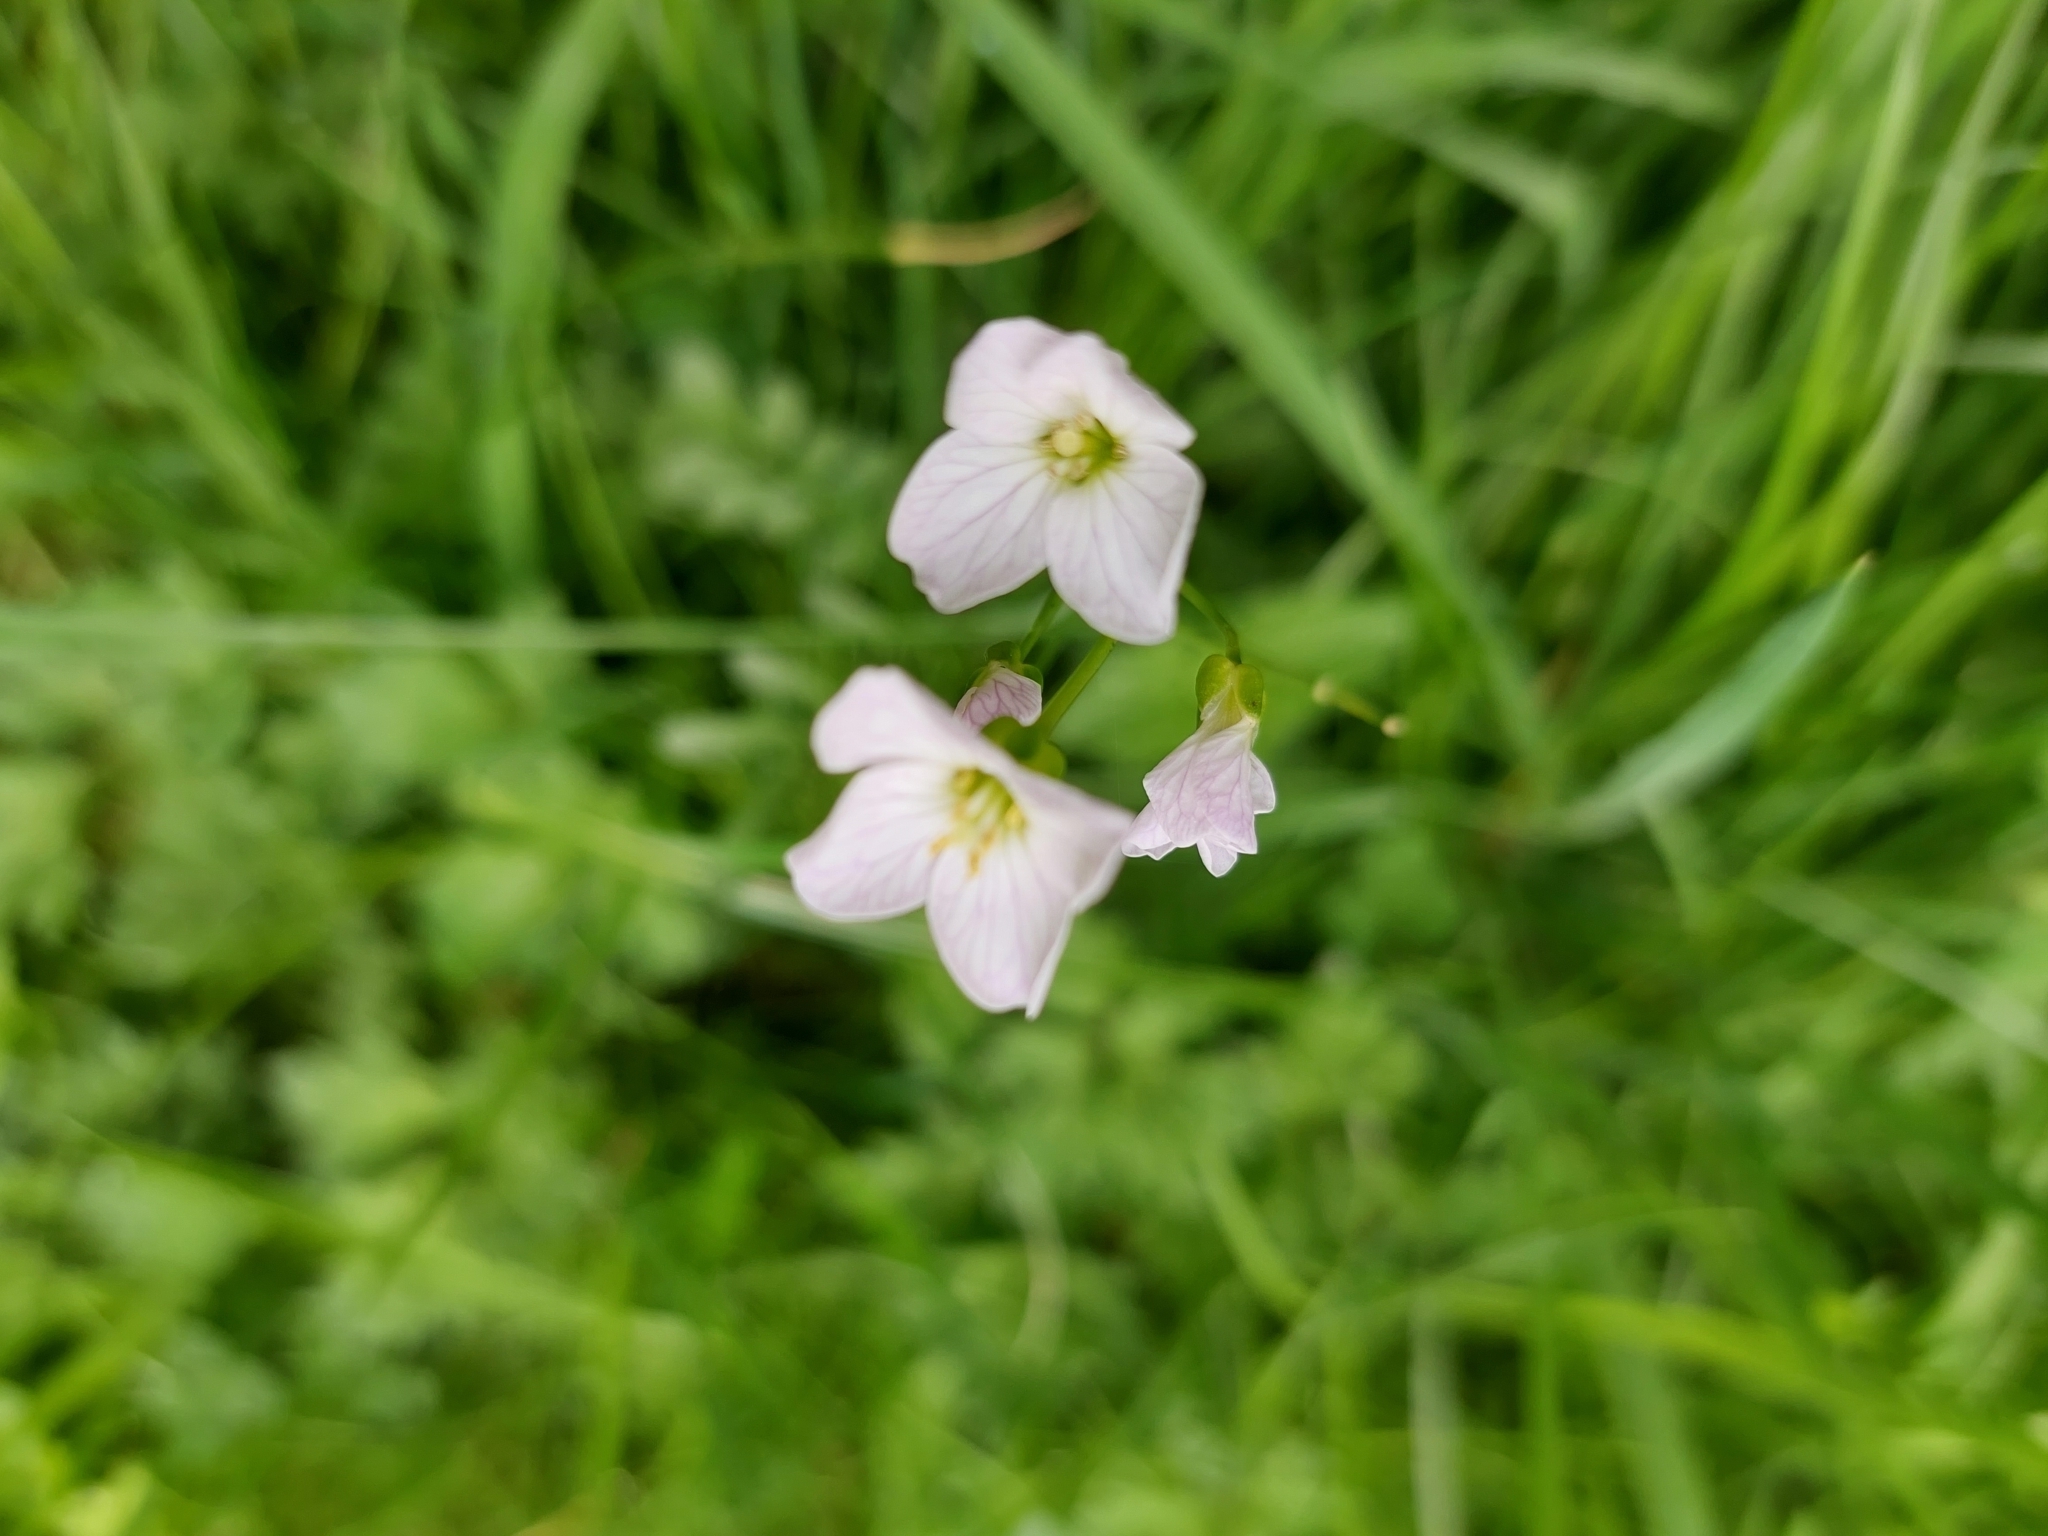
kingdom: Plantae
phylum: Tracheophyta
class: Magnoliopsida
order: Brassicales
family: Brassicaceae
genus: Cardamine
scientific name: Cardamine pratensis
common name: Cuckoo flower
